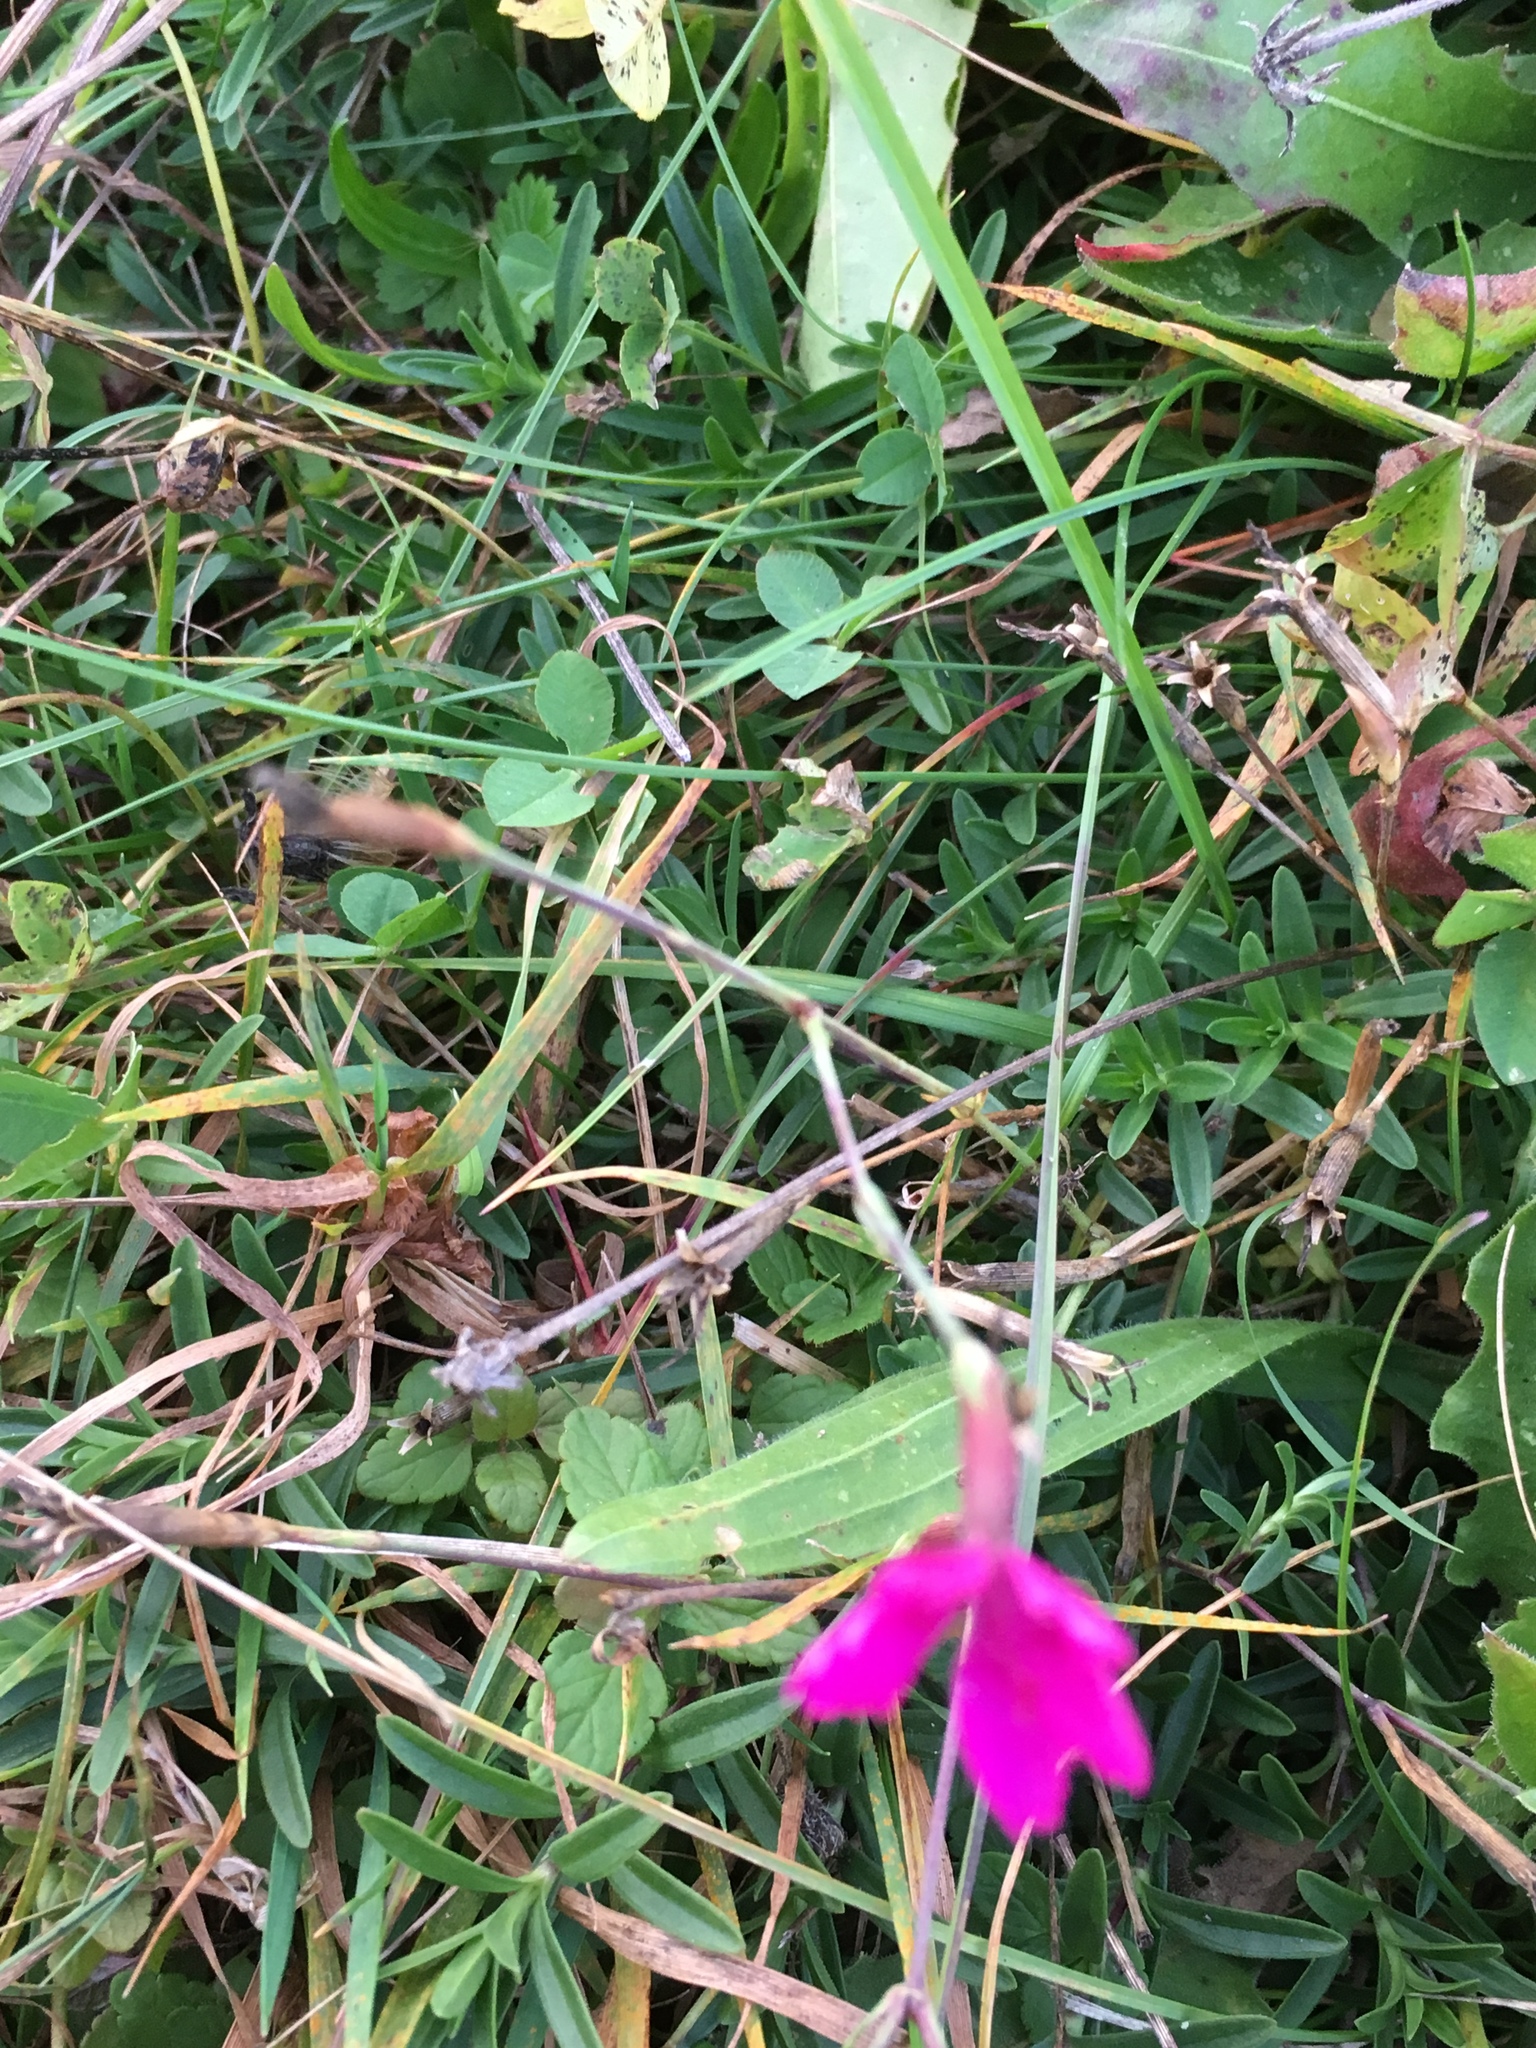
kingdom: Plantae
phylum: Tracheophyta
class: Magnoliopsida
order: Caryophyllales
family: Caryophyllaceae
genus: Dianthus
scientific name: Dianthus deltoides
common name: Maiden pink
